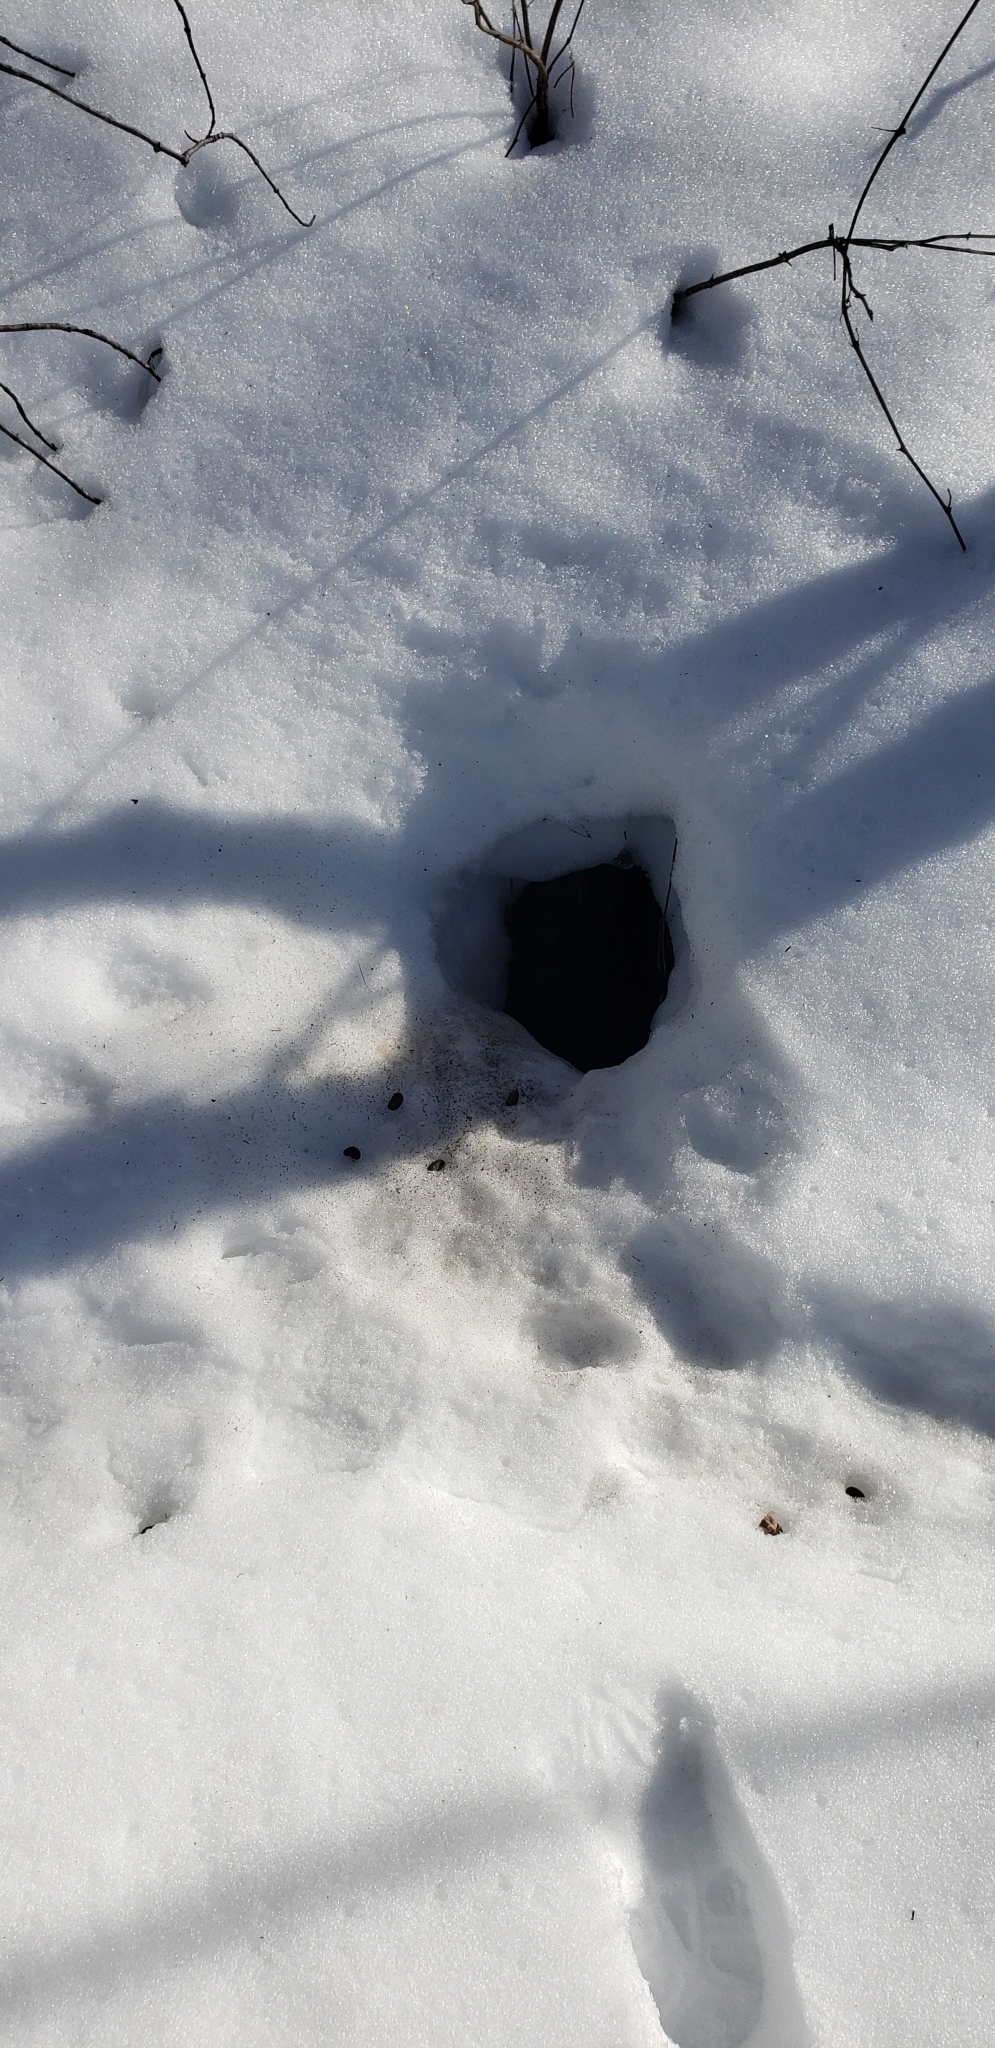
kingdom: Animalia
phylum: Chordata
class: Mammalia
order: Rodentia
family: Erethizontidae
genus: Erethizon
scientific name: Erethizon dorsatus
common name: North american porcupine
